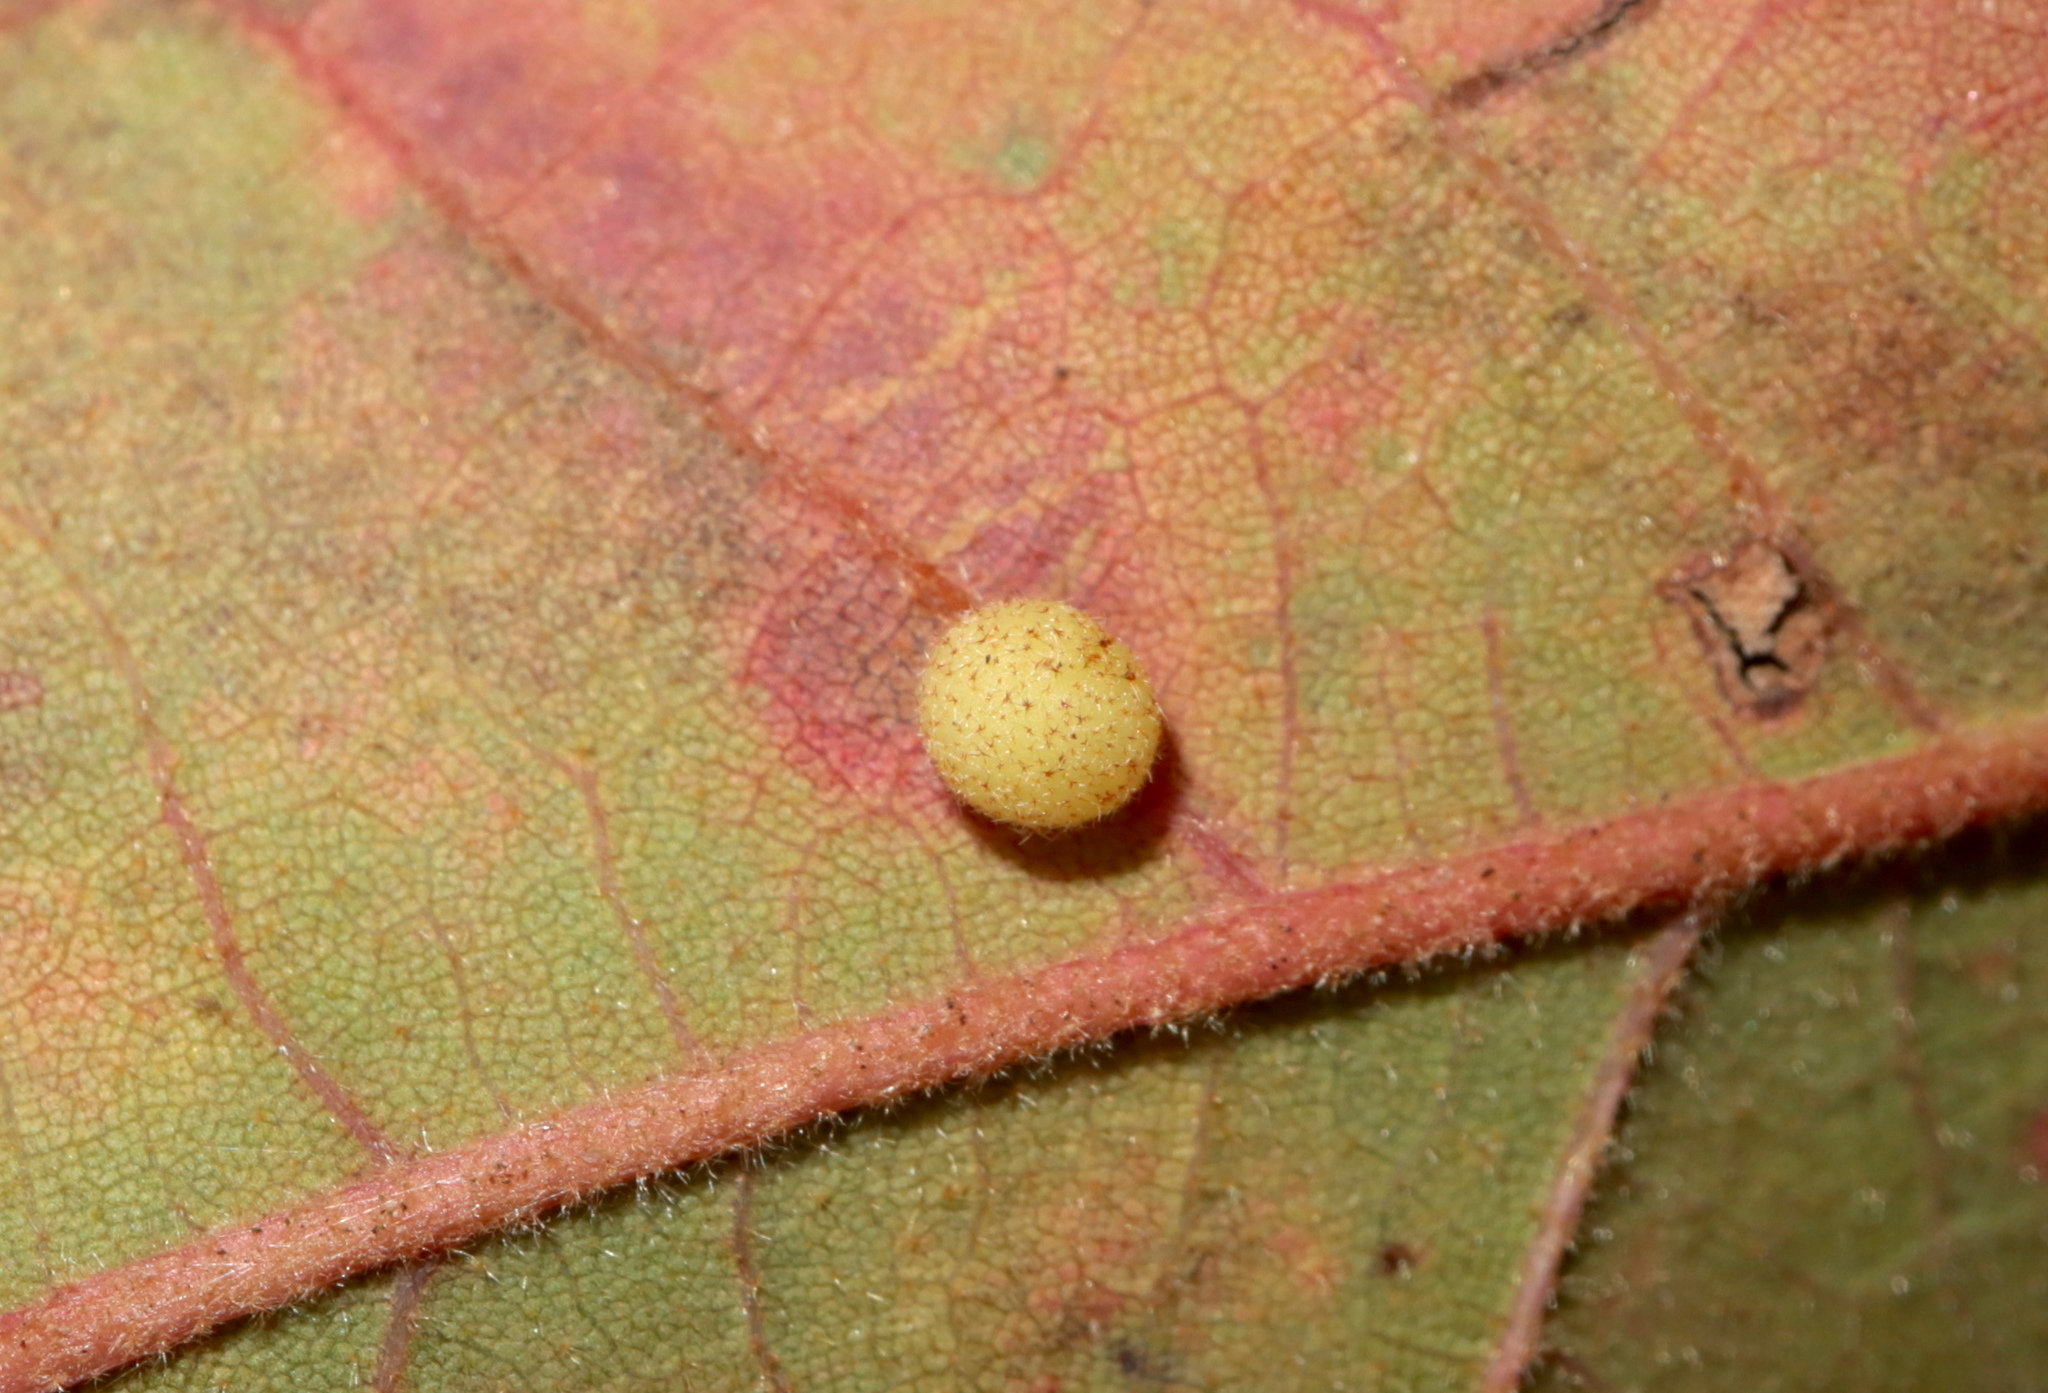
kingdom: Animalia
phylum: Arthropoda
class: Insecta
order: Hymenoptera
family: Cynipidae
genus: Atrusca
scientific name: Atrusca
